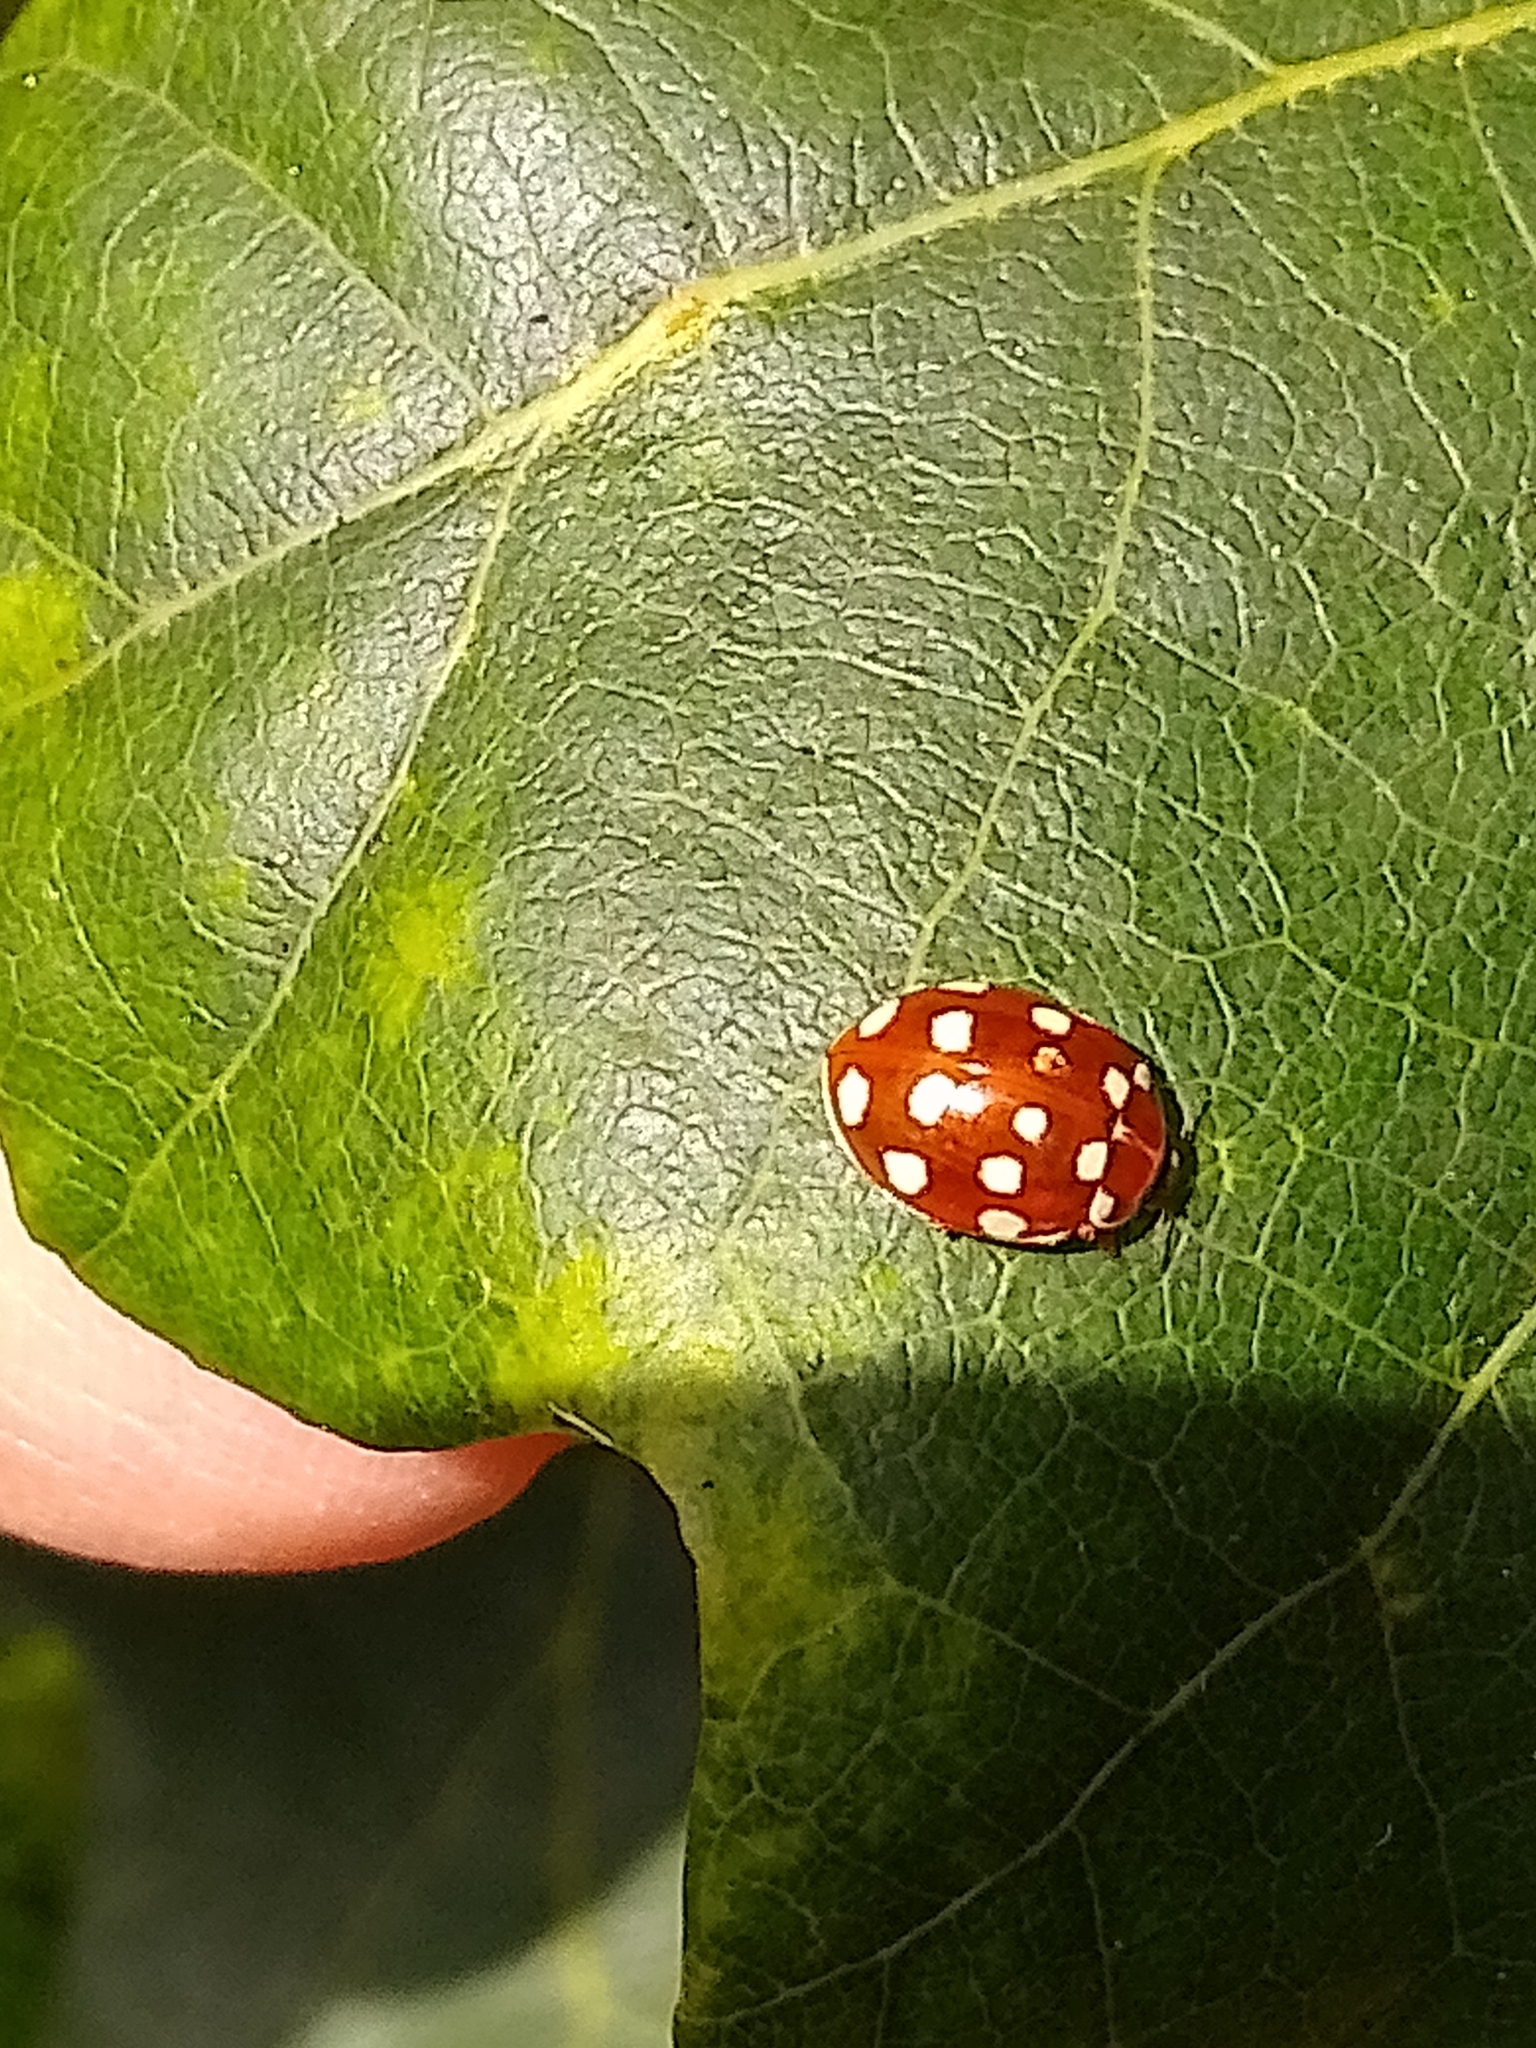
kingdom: Animalia
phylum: Arthropoda
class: Insecta
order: Coleoptera
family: Coccinellidae
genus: Calvia
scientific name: Calvia quatuordecimguttata
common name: Cream-spot ladybird
